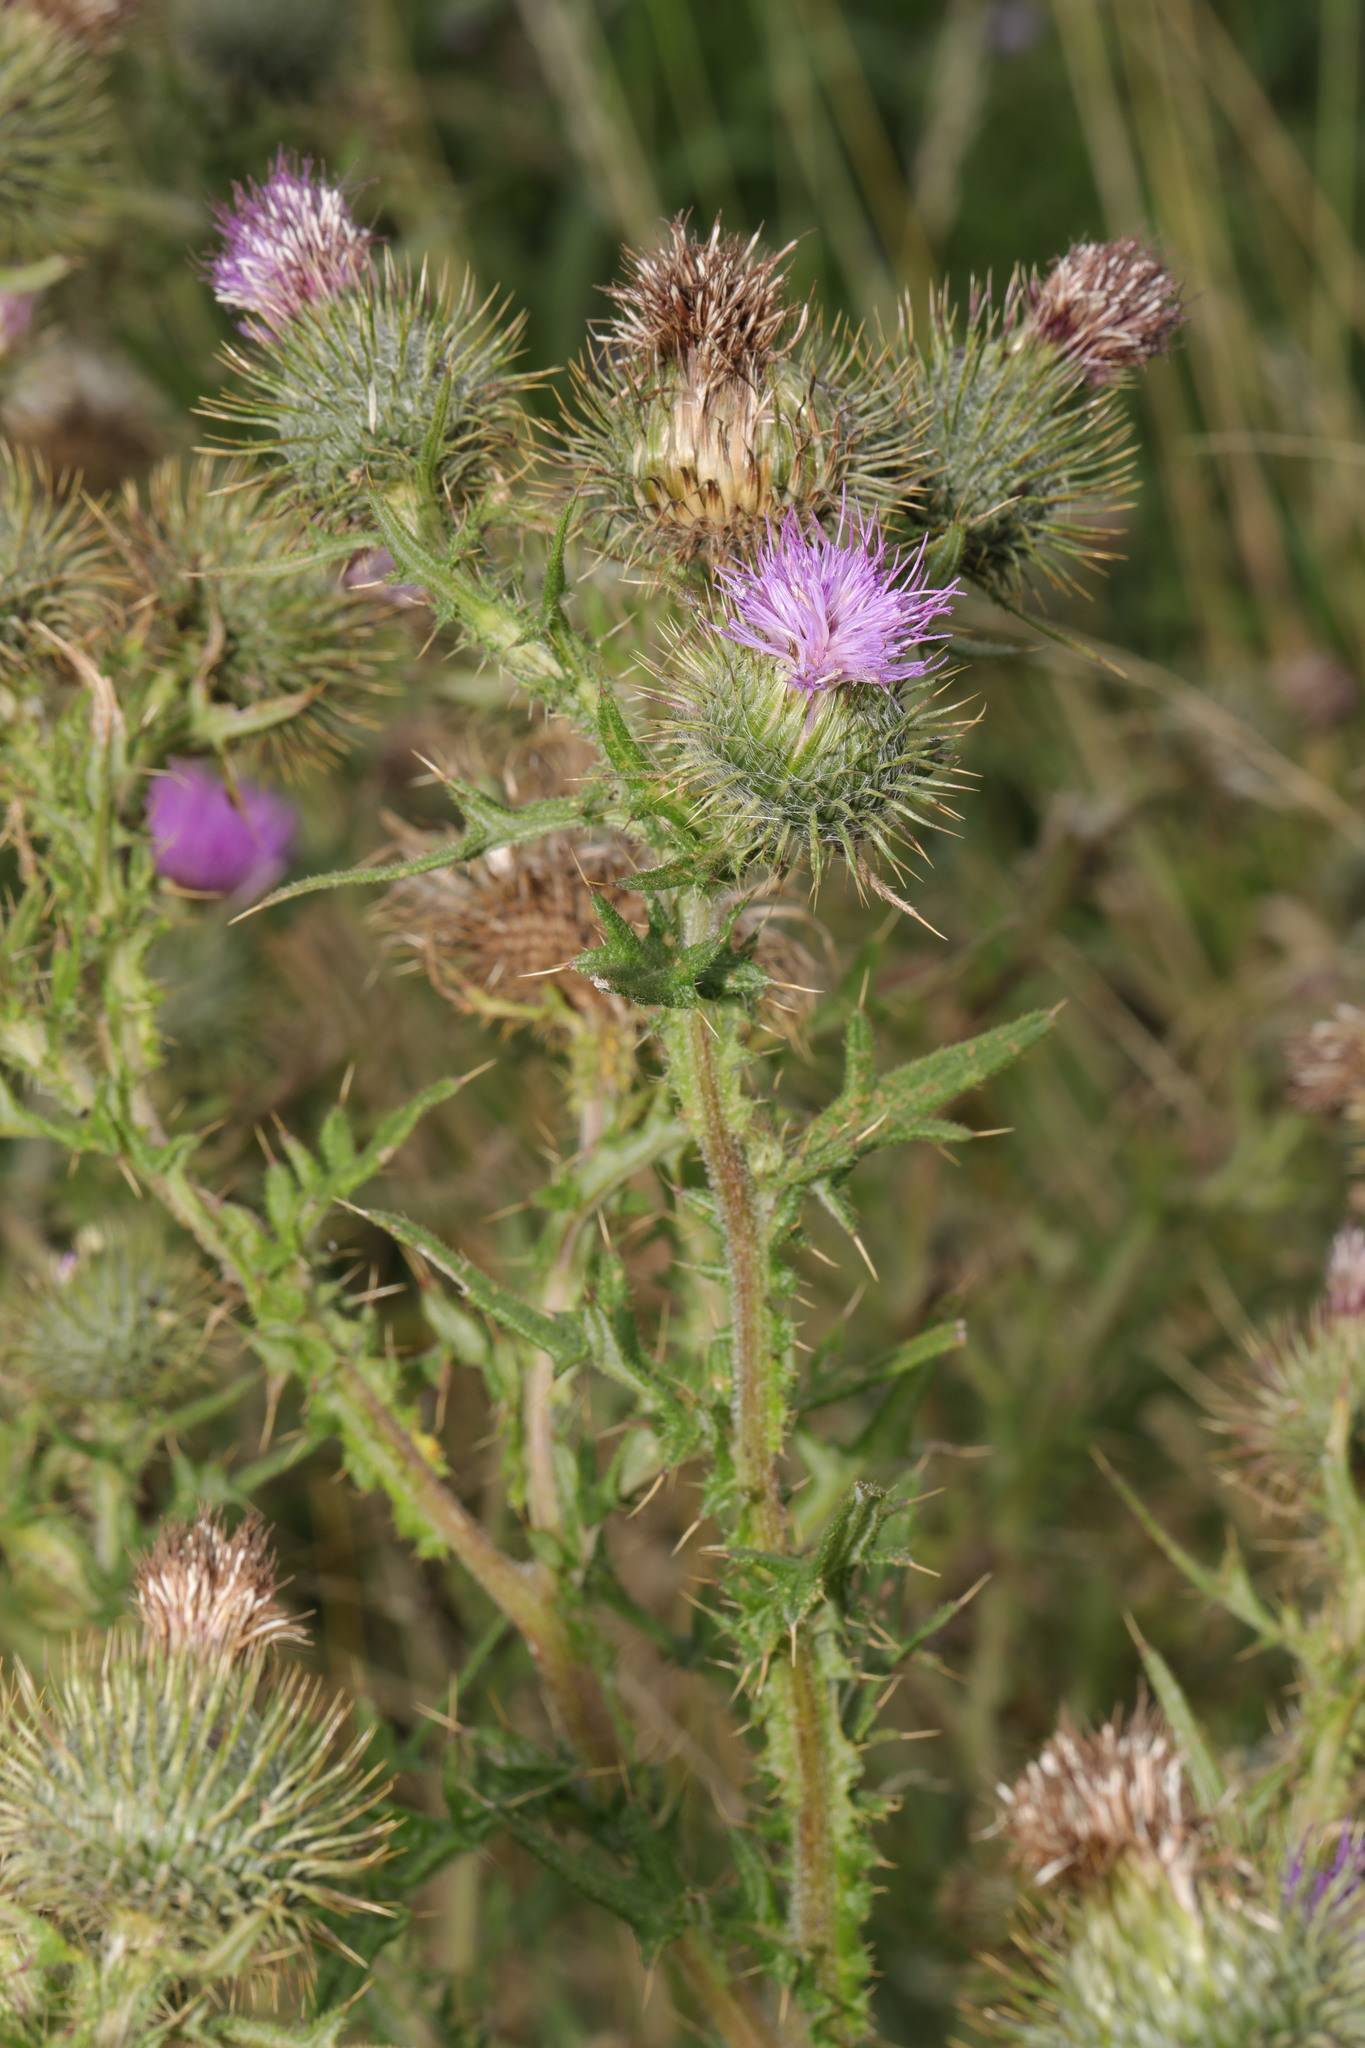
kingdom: Plantae
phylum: Tracheophyta
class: Magnoliopsida
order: Asterales
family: Asteraceae
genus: Cirsium
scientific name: Cirsium vulgare
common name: Bull thistle
